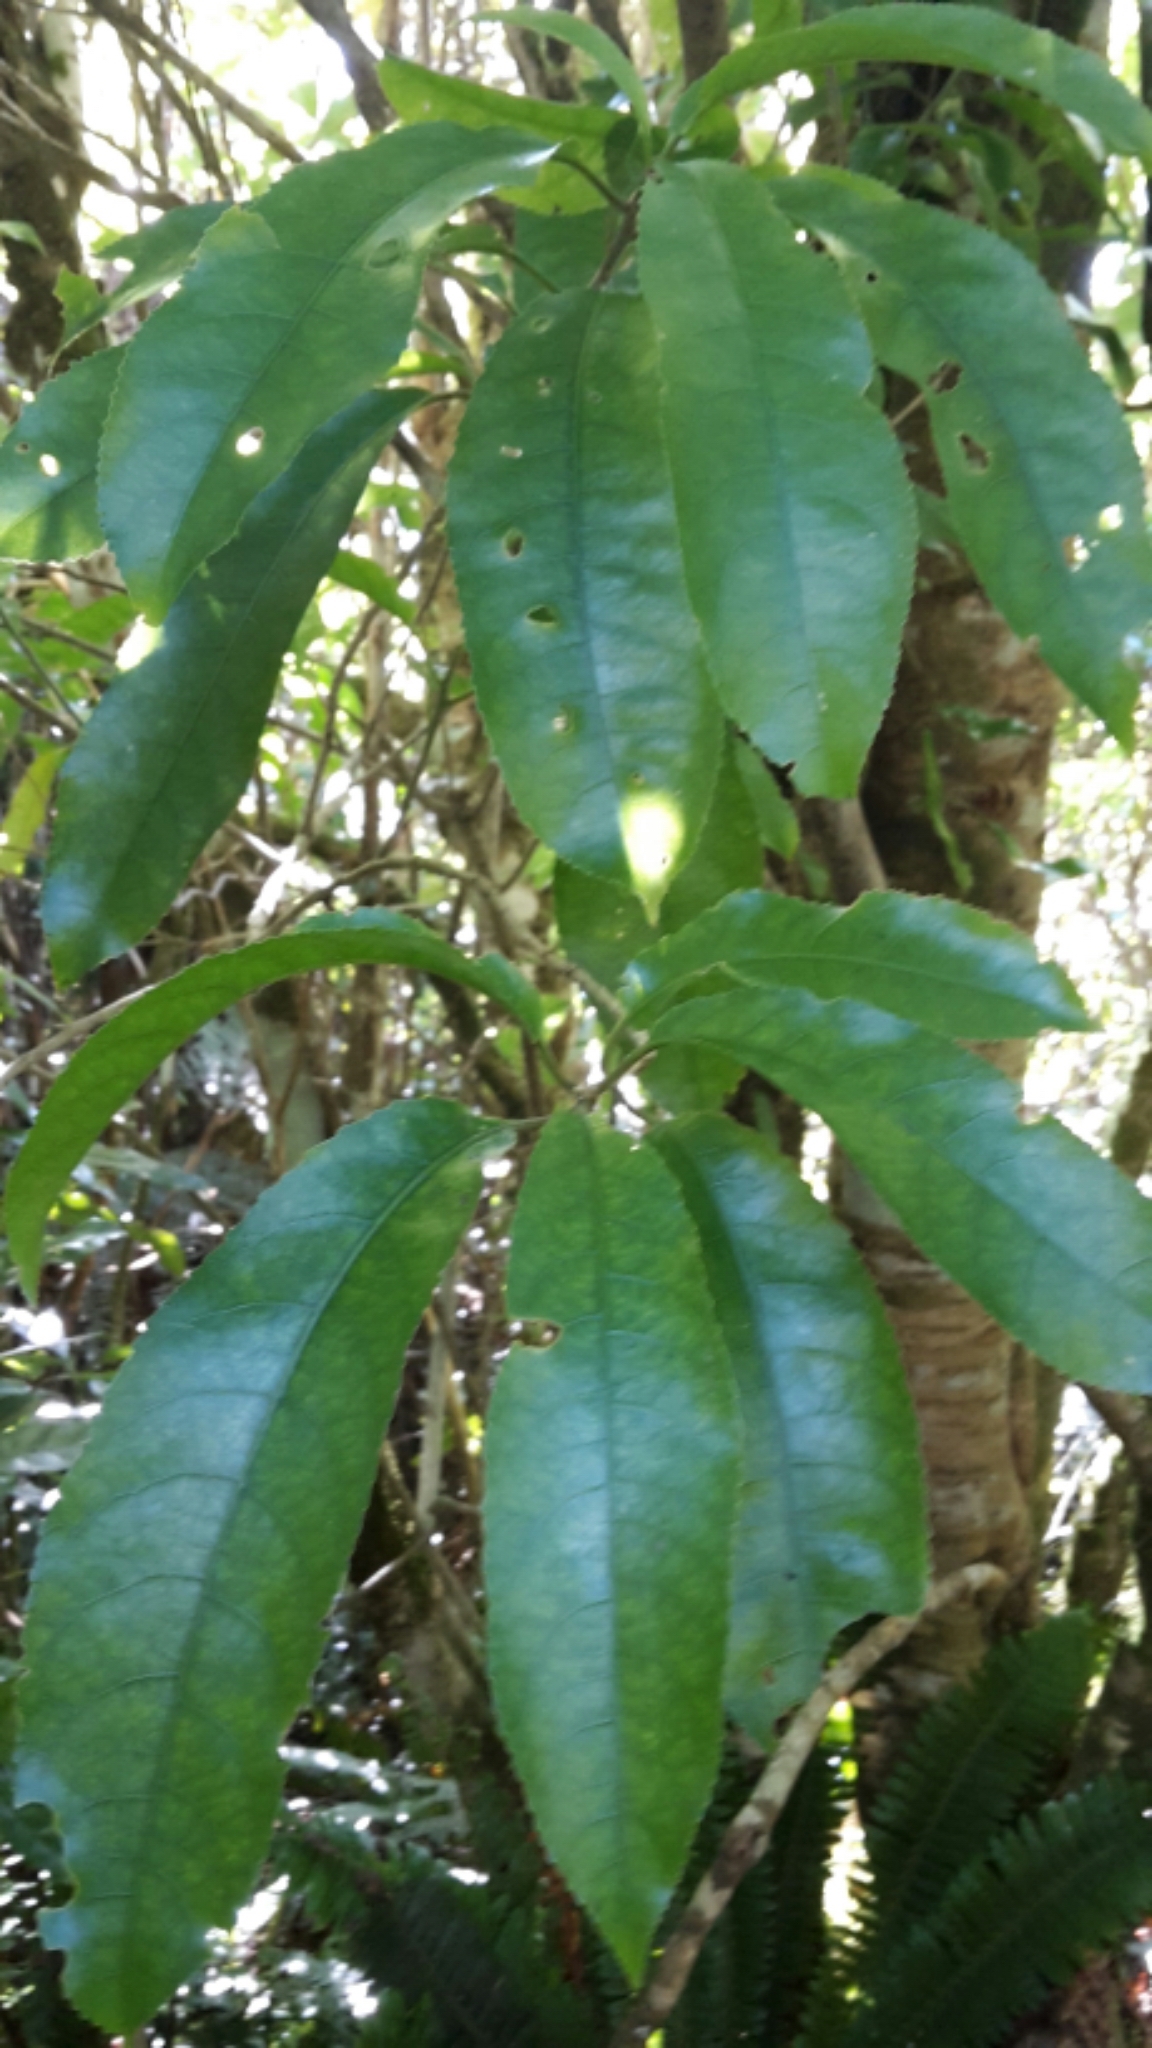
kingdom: Plantae
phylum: Tracheophyta
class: Magnoliopsida
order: Malpighiales
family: Violaceae
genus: Melicytus
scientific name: Melicytus ramiflorus
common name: Mahoe
